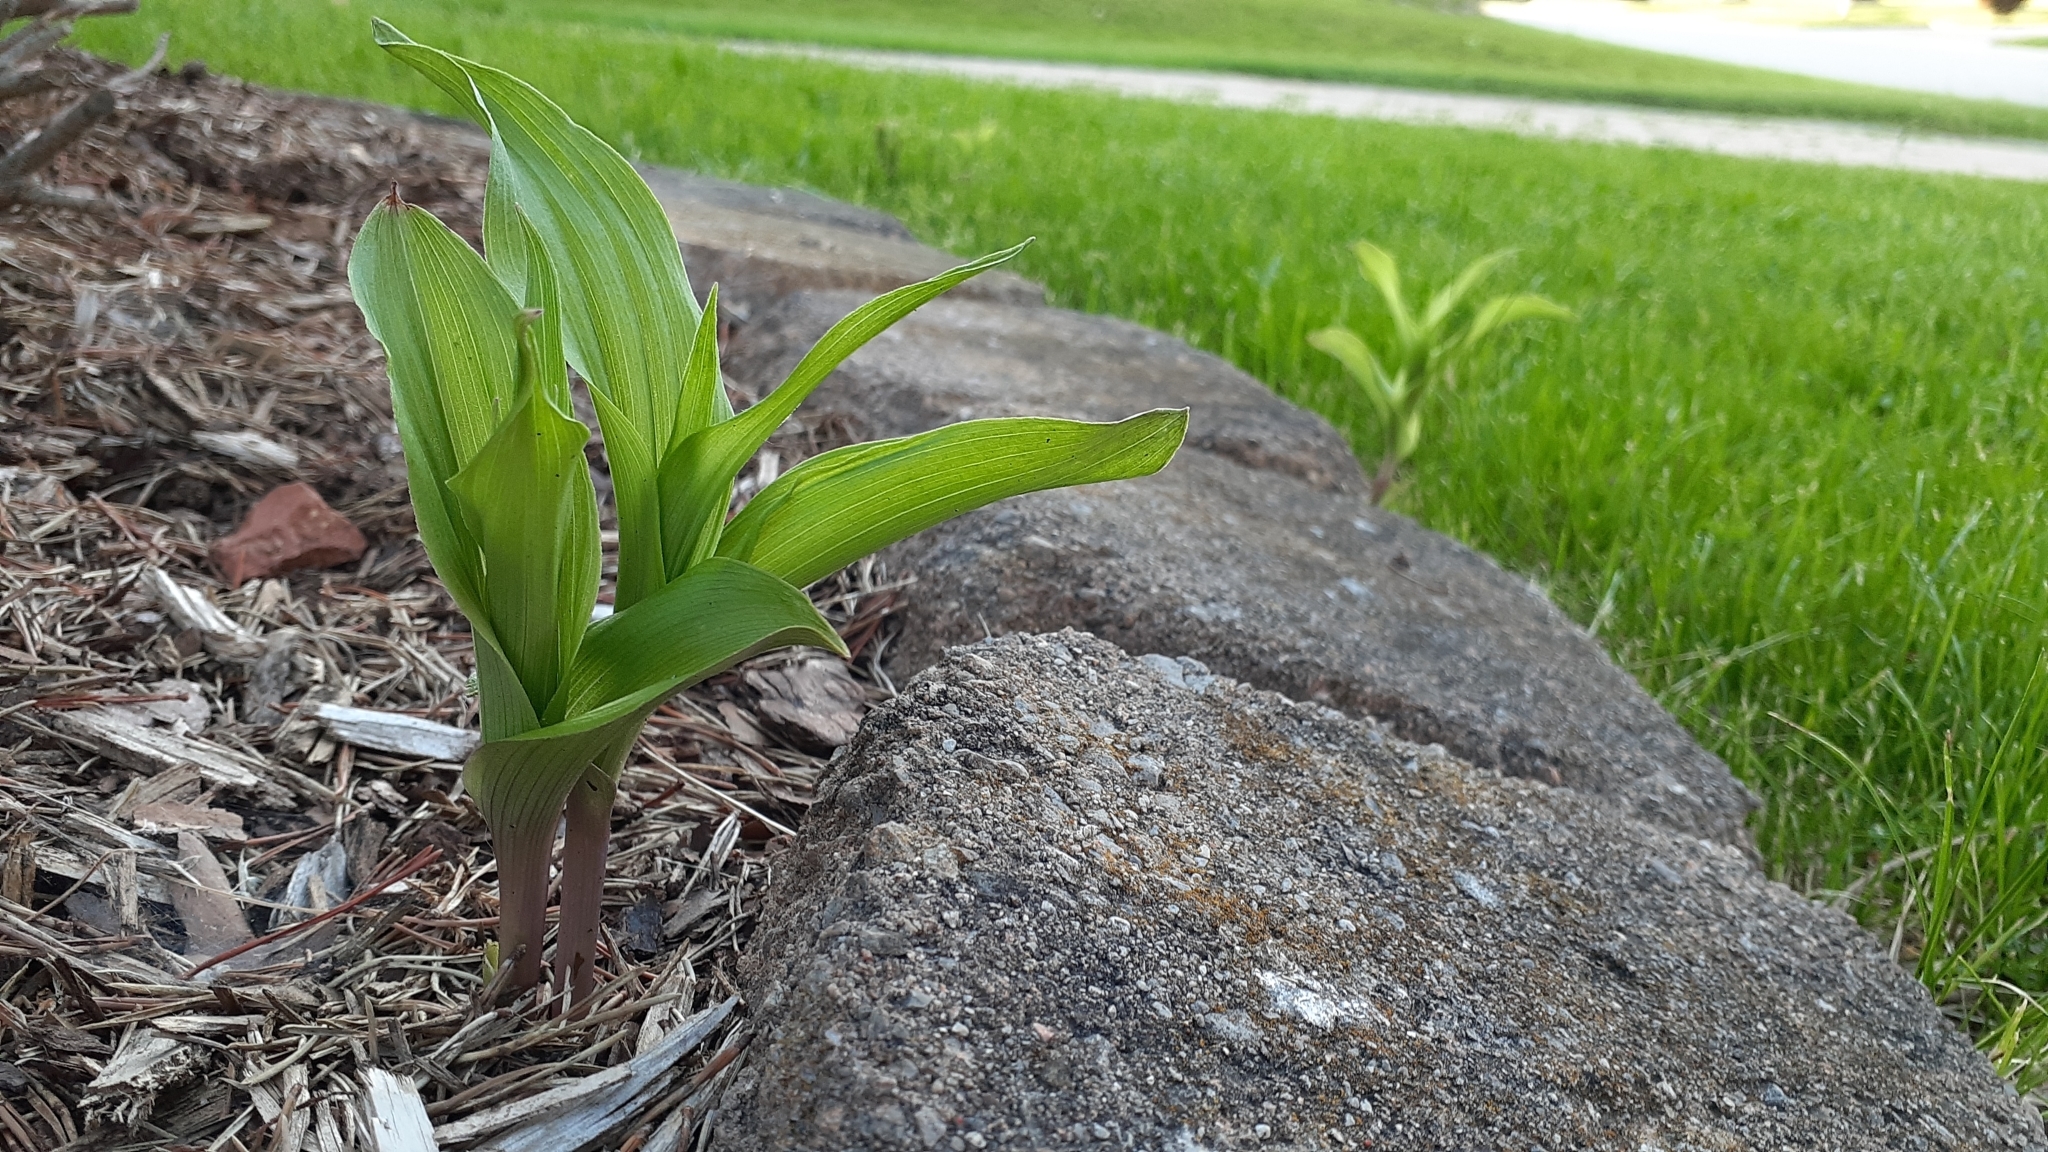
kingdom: Plantae
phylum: Tracheophyta
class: Liliopsida
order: Asparagales
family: Orchidaceae
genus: Epipactis
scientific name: Epipactis helleborine
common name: Broad-leaved helleborine
